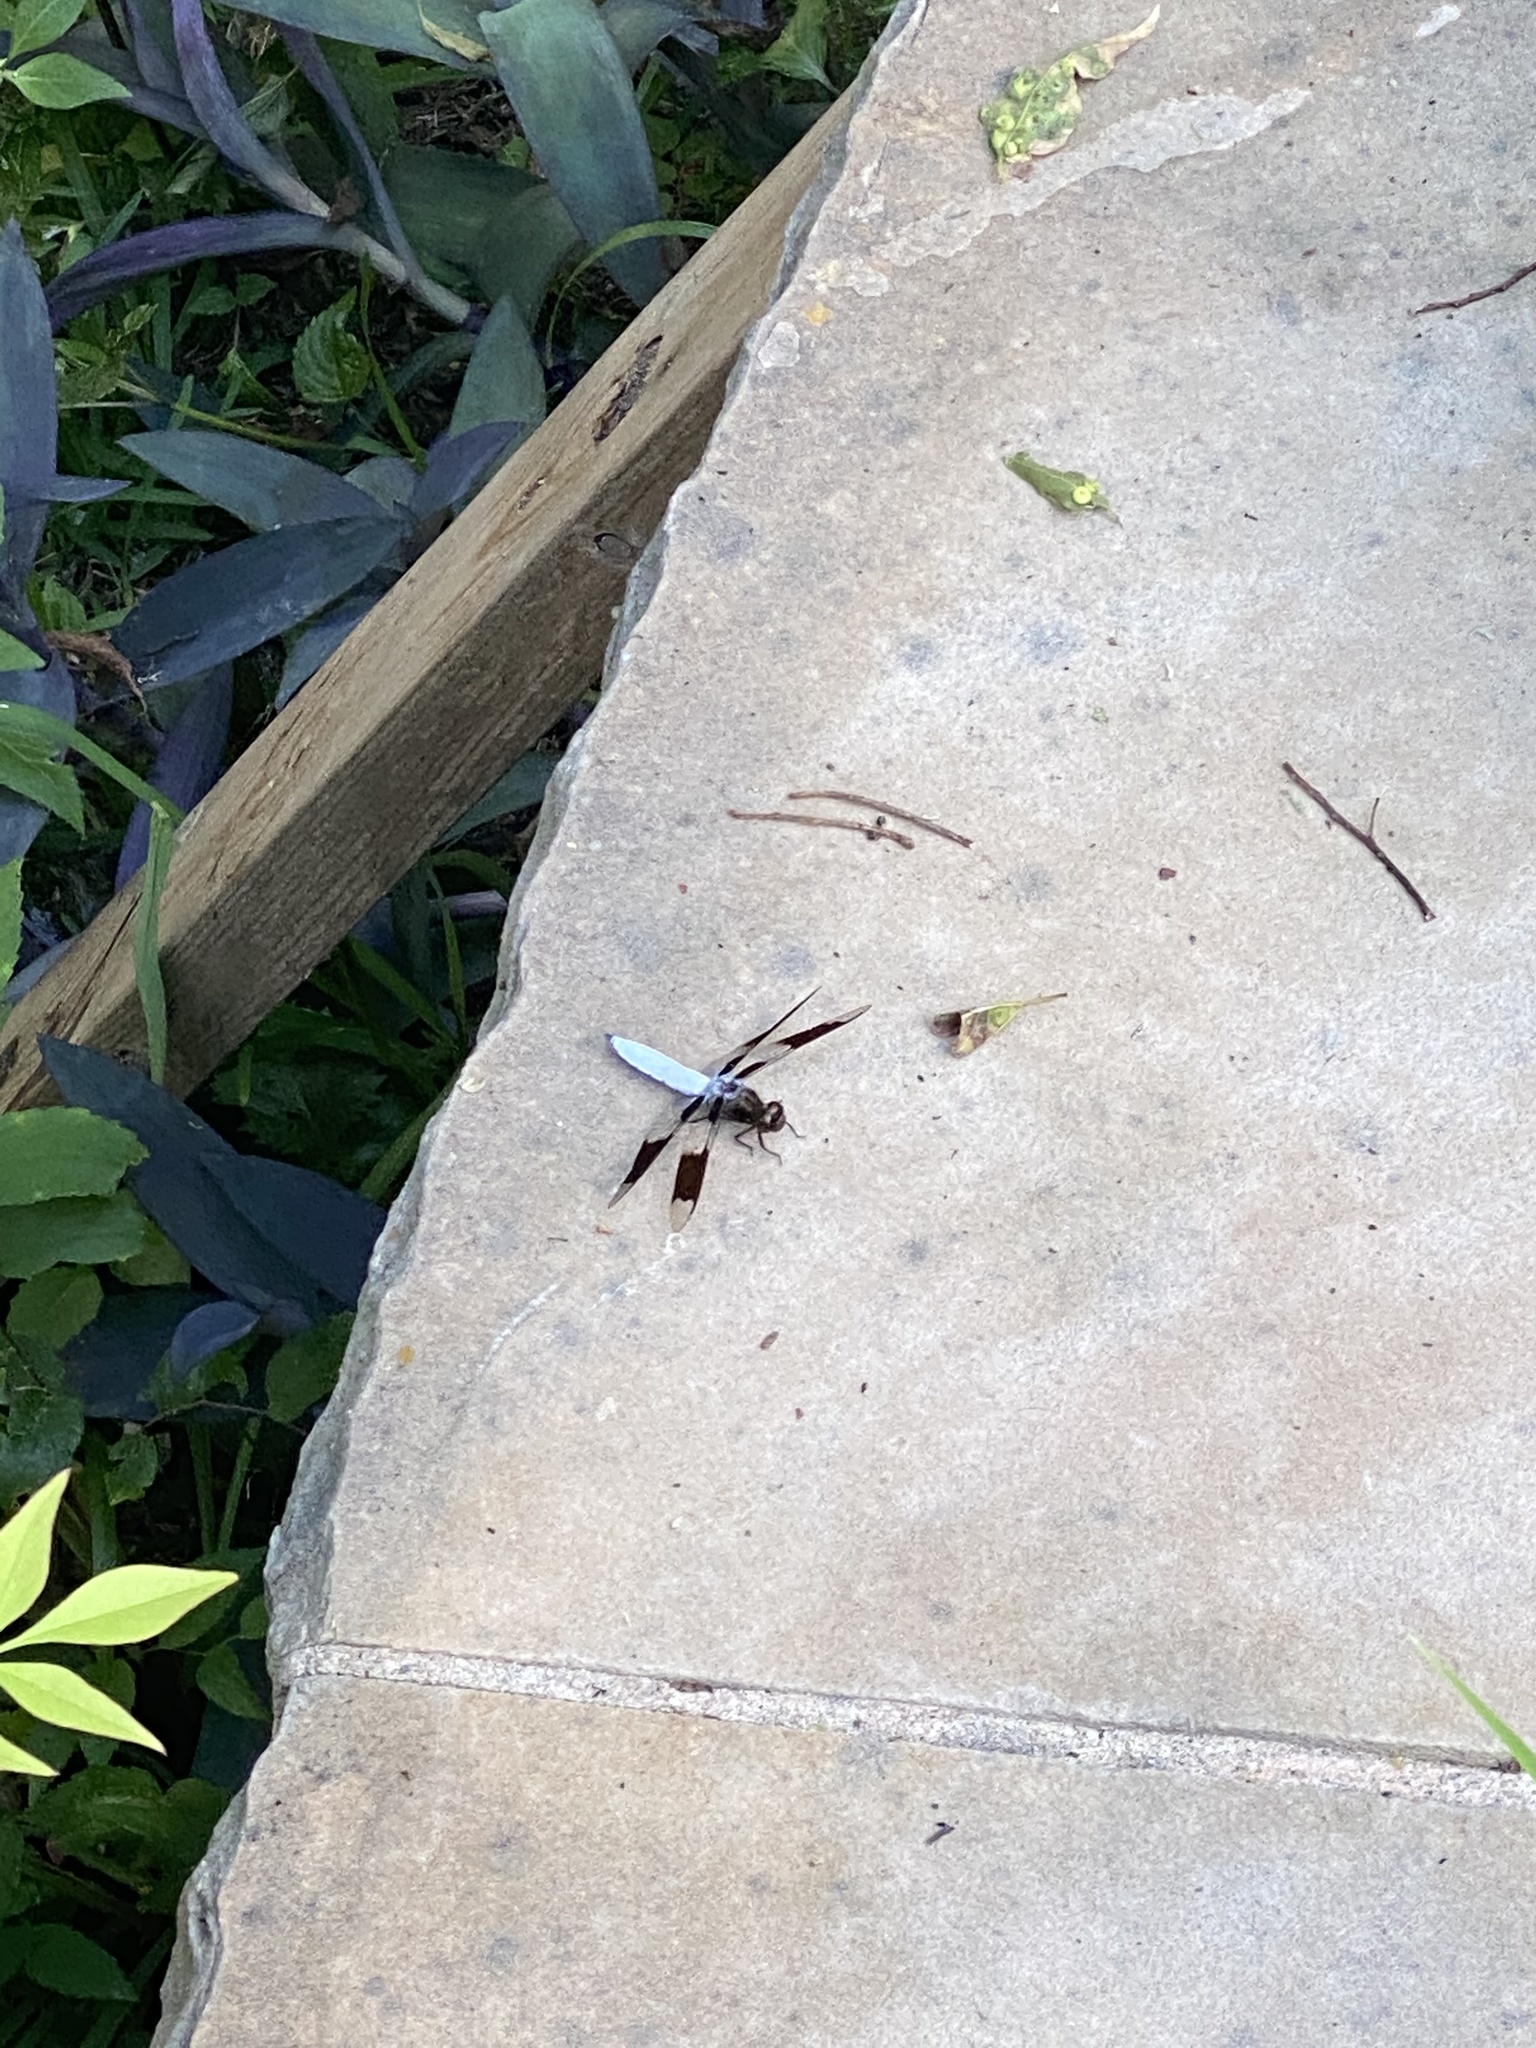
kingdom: Animalia
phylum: Arthropoda
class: Insecta
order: Odonata
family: Libellulidae
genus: Plathemis
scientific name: Plathemis lydia
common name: Common whitetail
